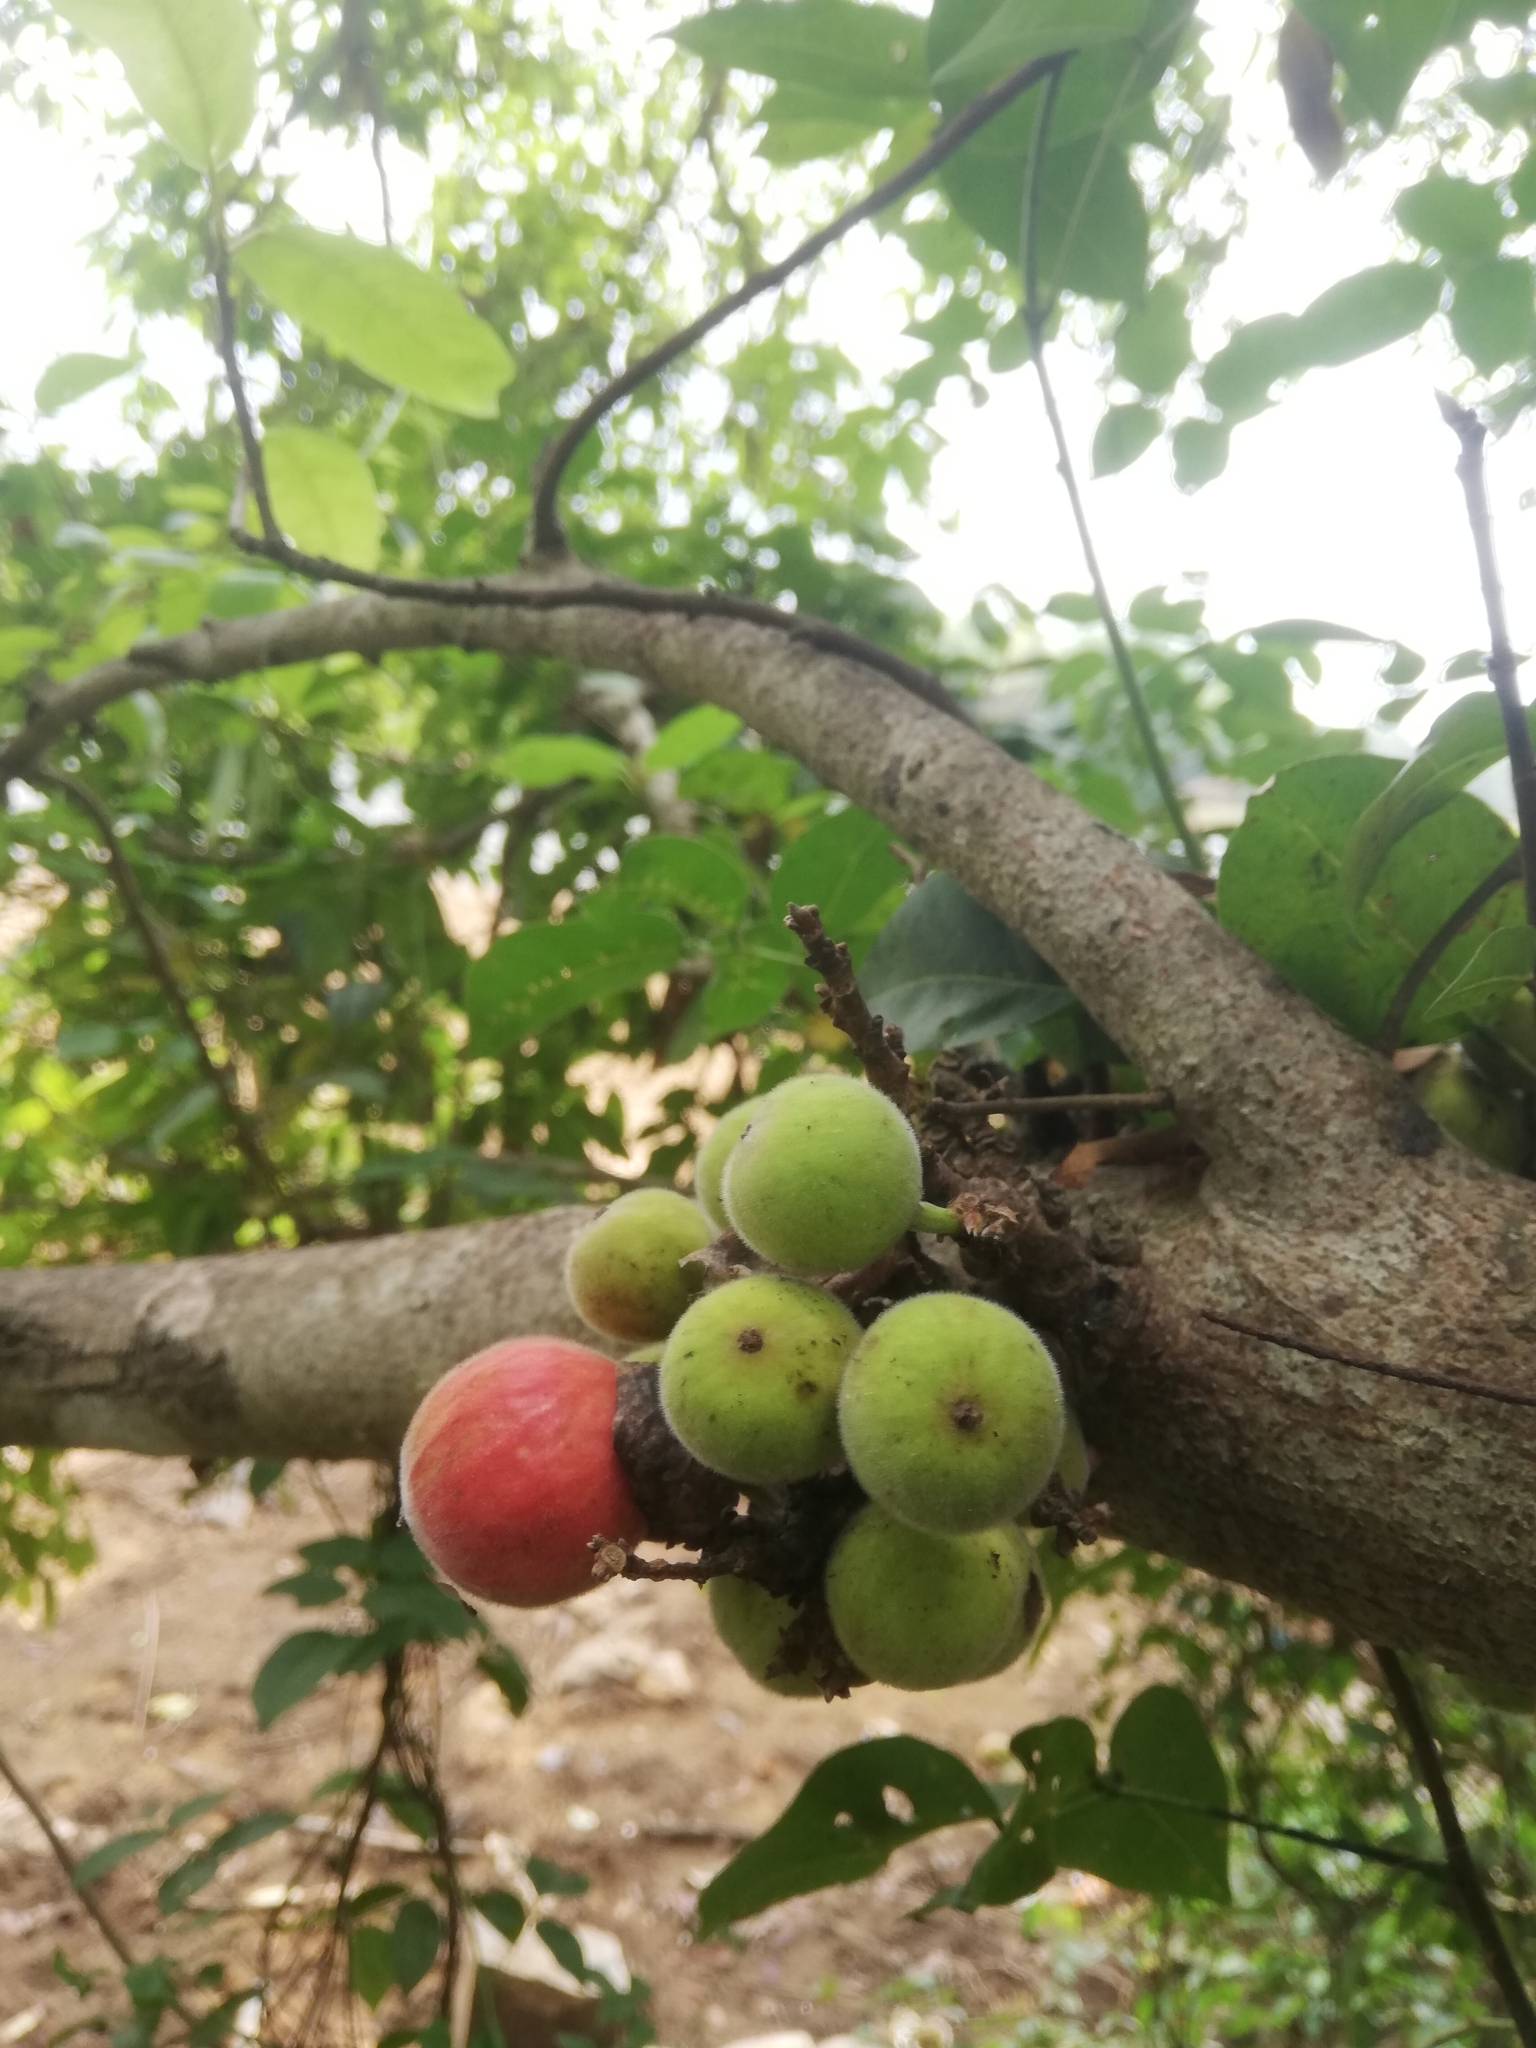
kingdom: Plantae
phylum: Tracheophyta
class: Magnoliopsida
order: Rosales
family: Moraceae
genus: Ficus
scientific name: Ficus racemosa
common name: Cluster fig
